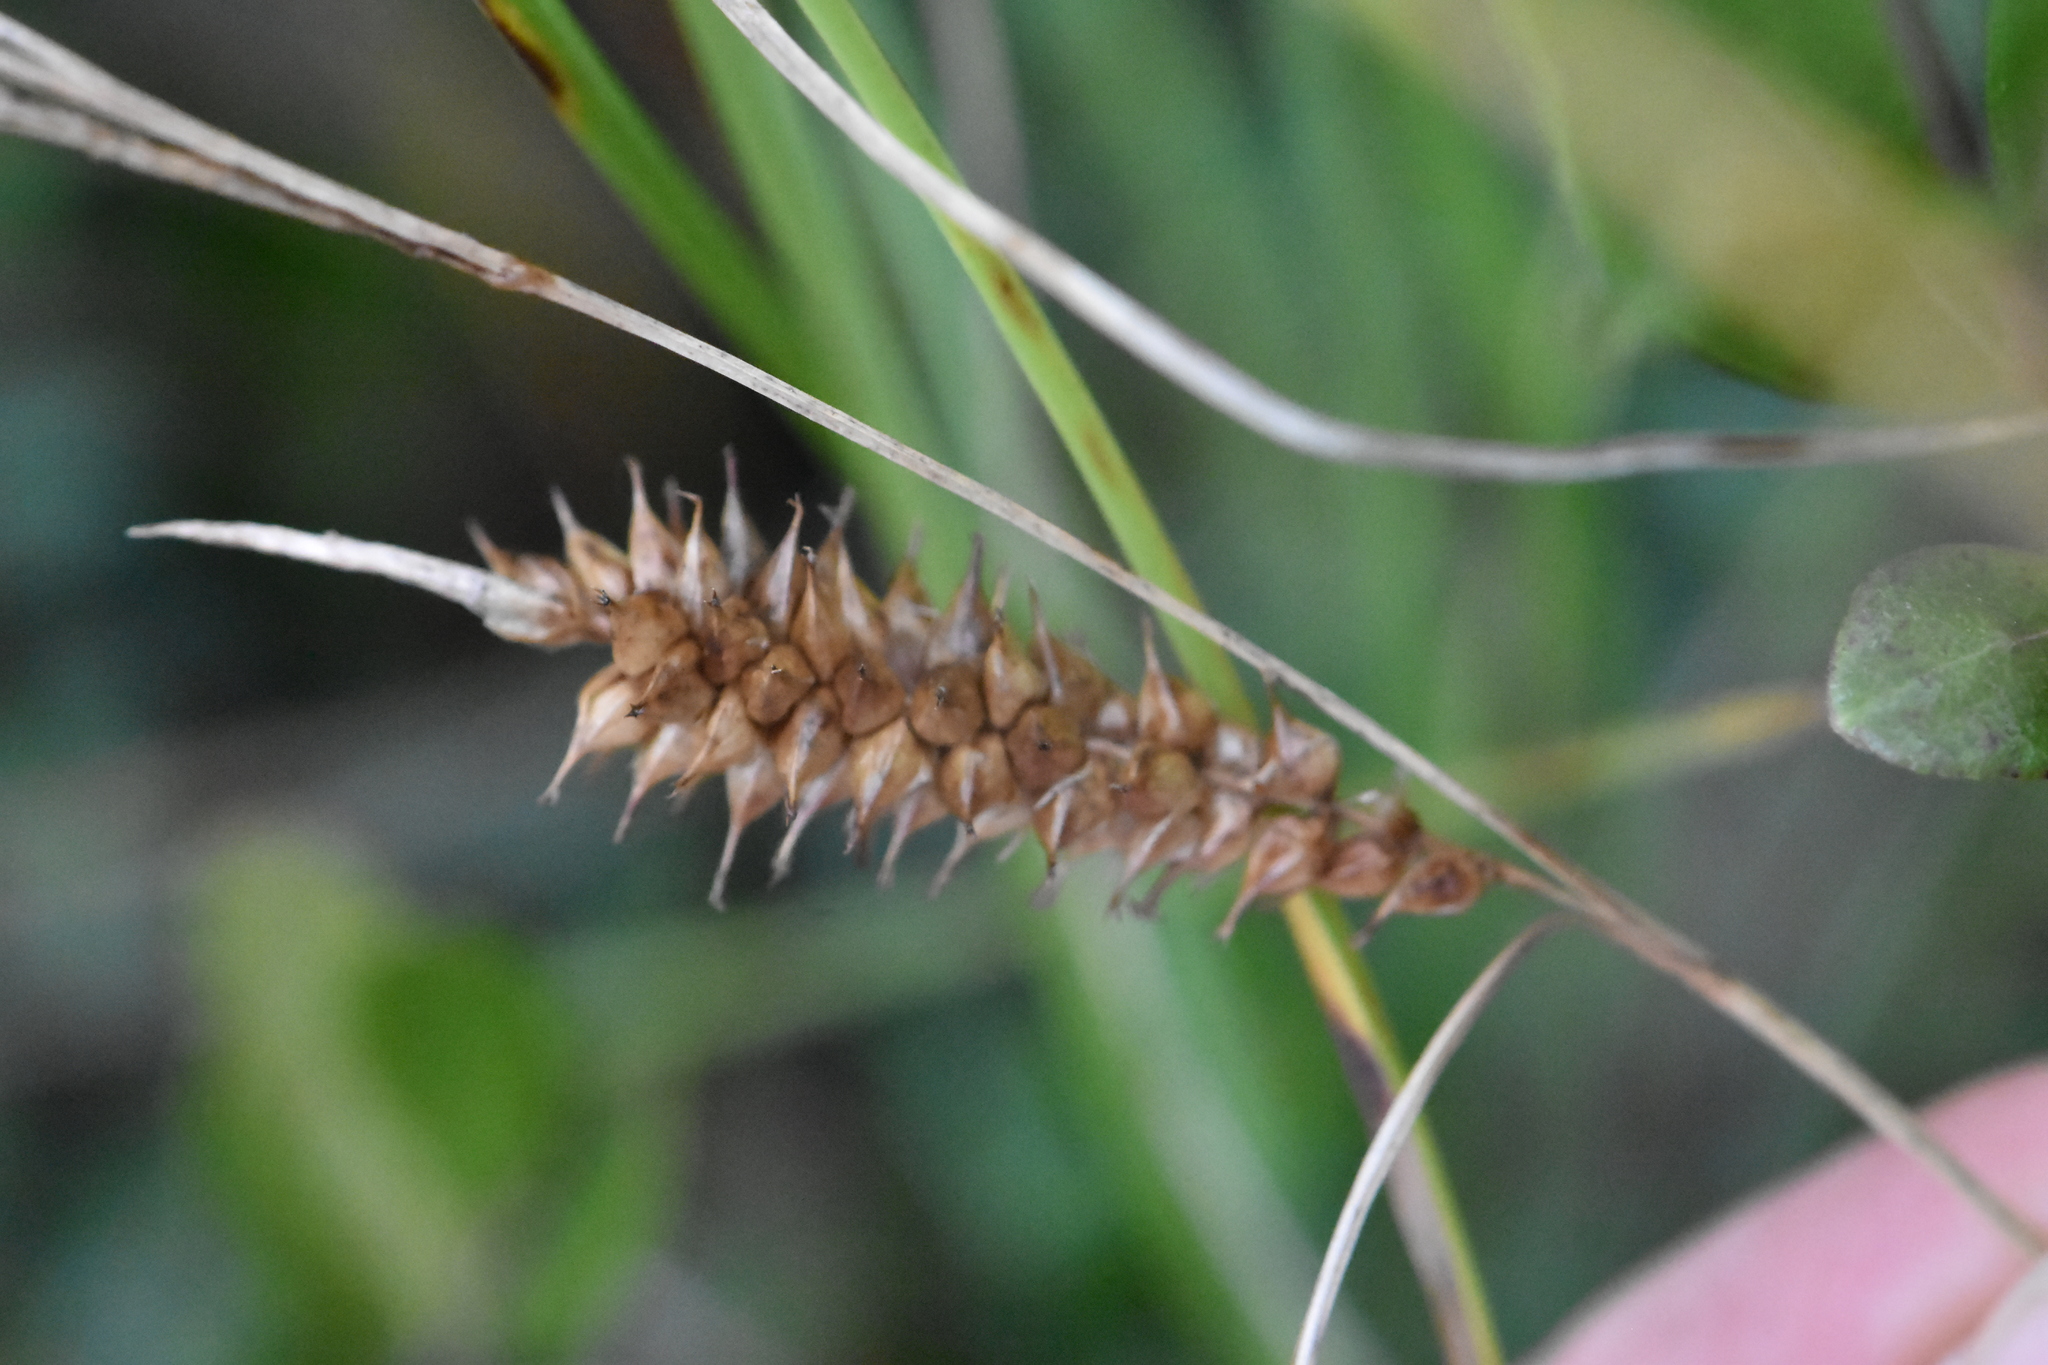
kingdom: Plantae
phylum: Tracheophyta
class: Liliopsida
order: Poales
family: Cyperaceae
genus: Carex
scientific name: Carex rostrata
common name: Bottle sedge
